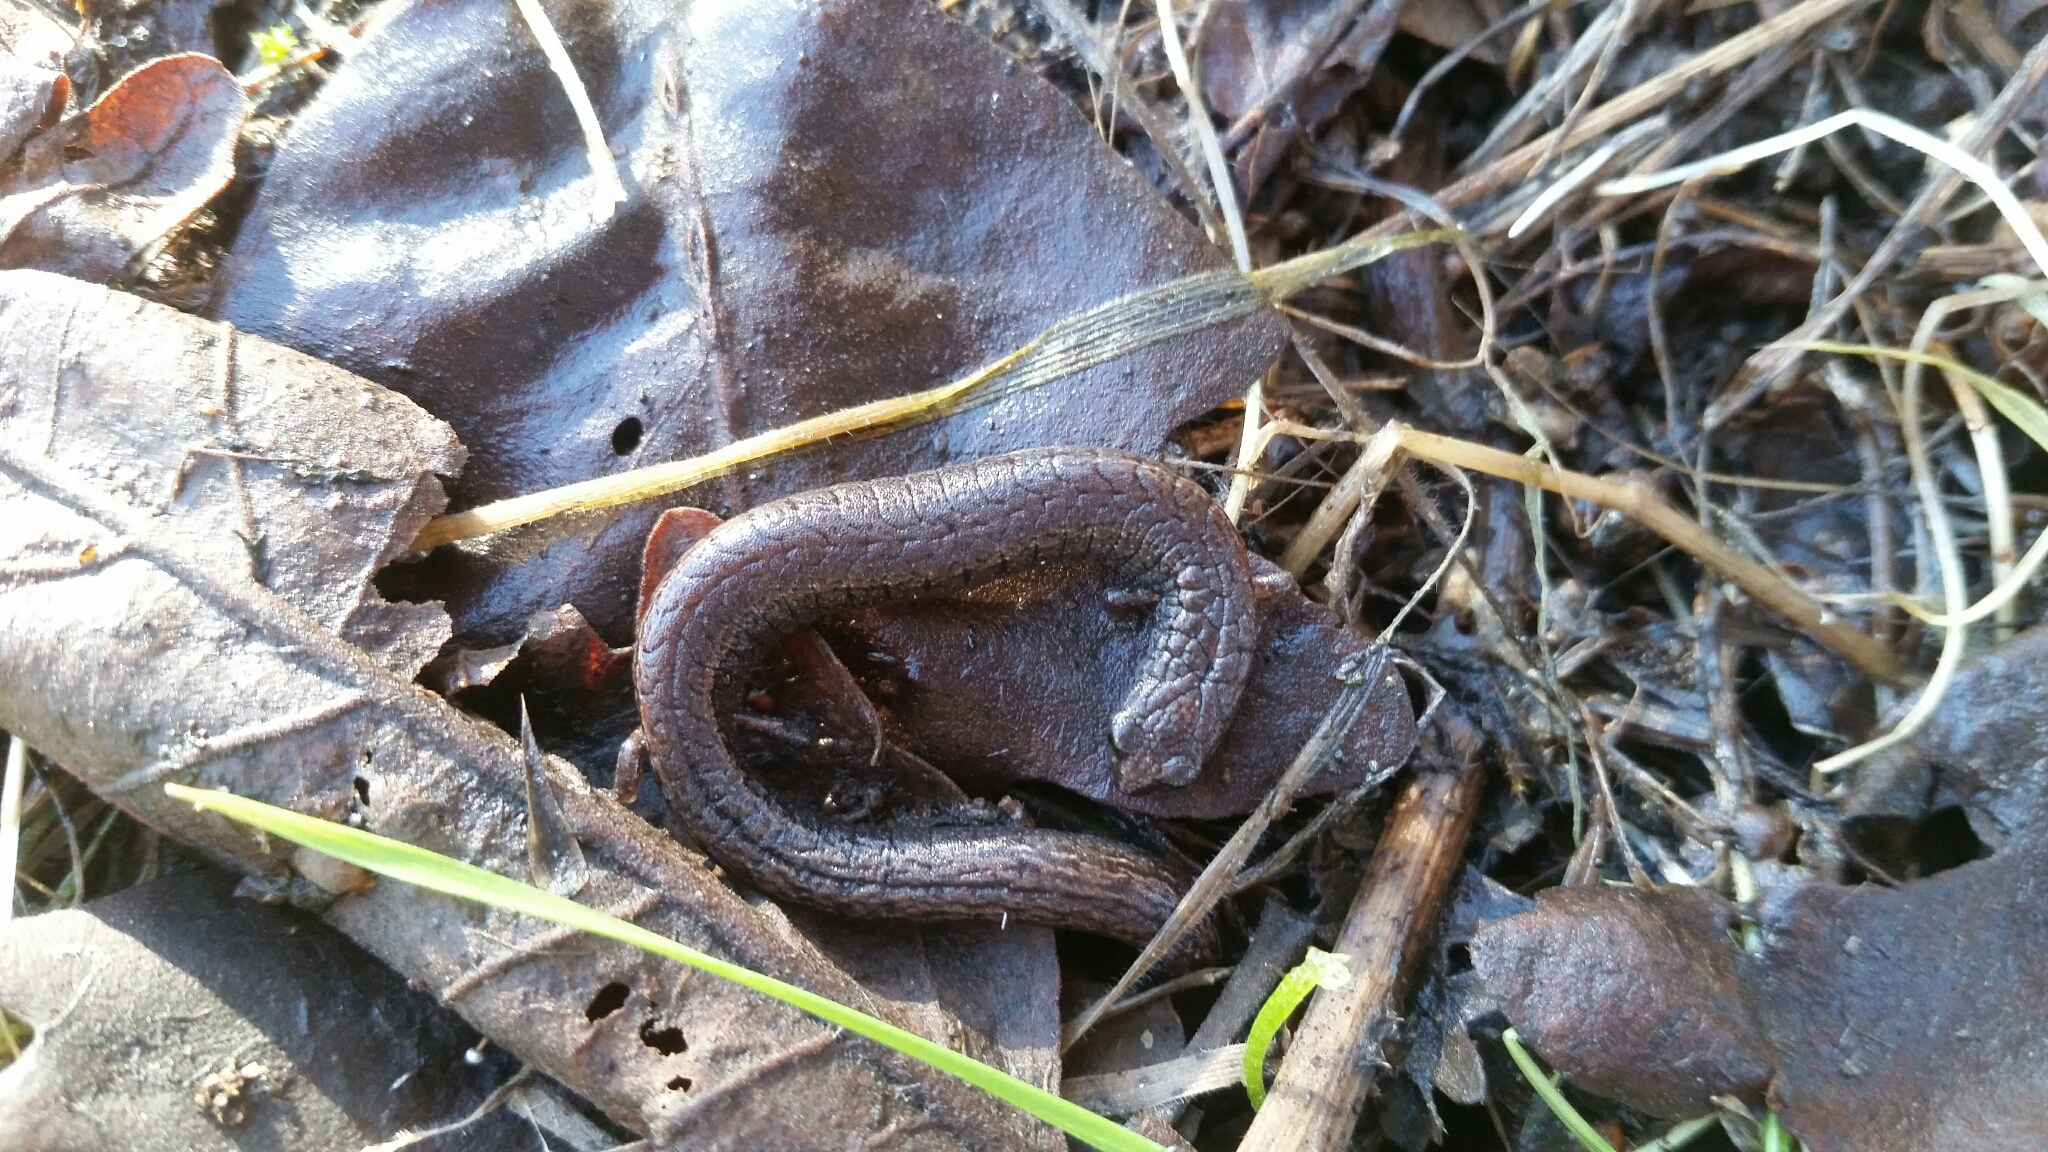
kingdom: Animalia
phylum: Chordata
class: Amphibia
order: Caudata
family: Plethodontidae
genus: Batrachoseps
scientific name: Batrachoseps attenuatus
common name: California slender salamander
